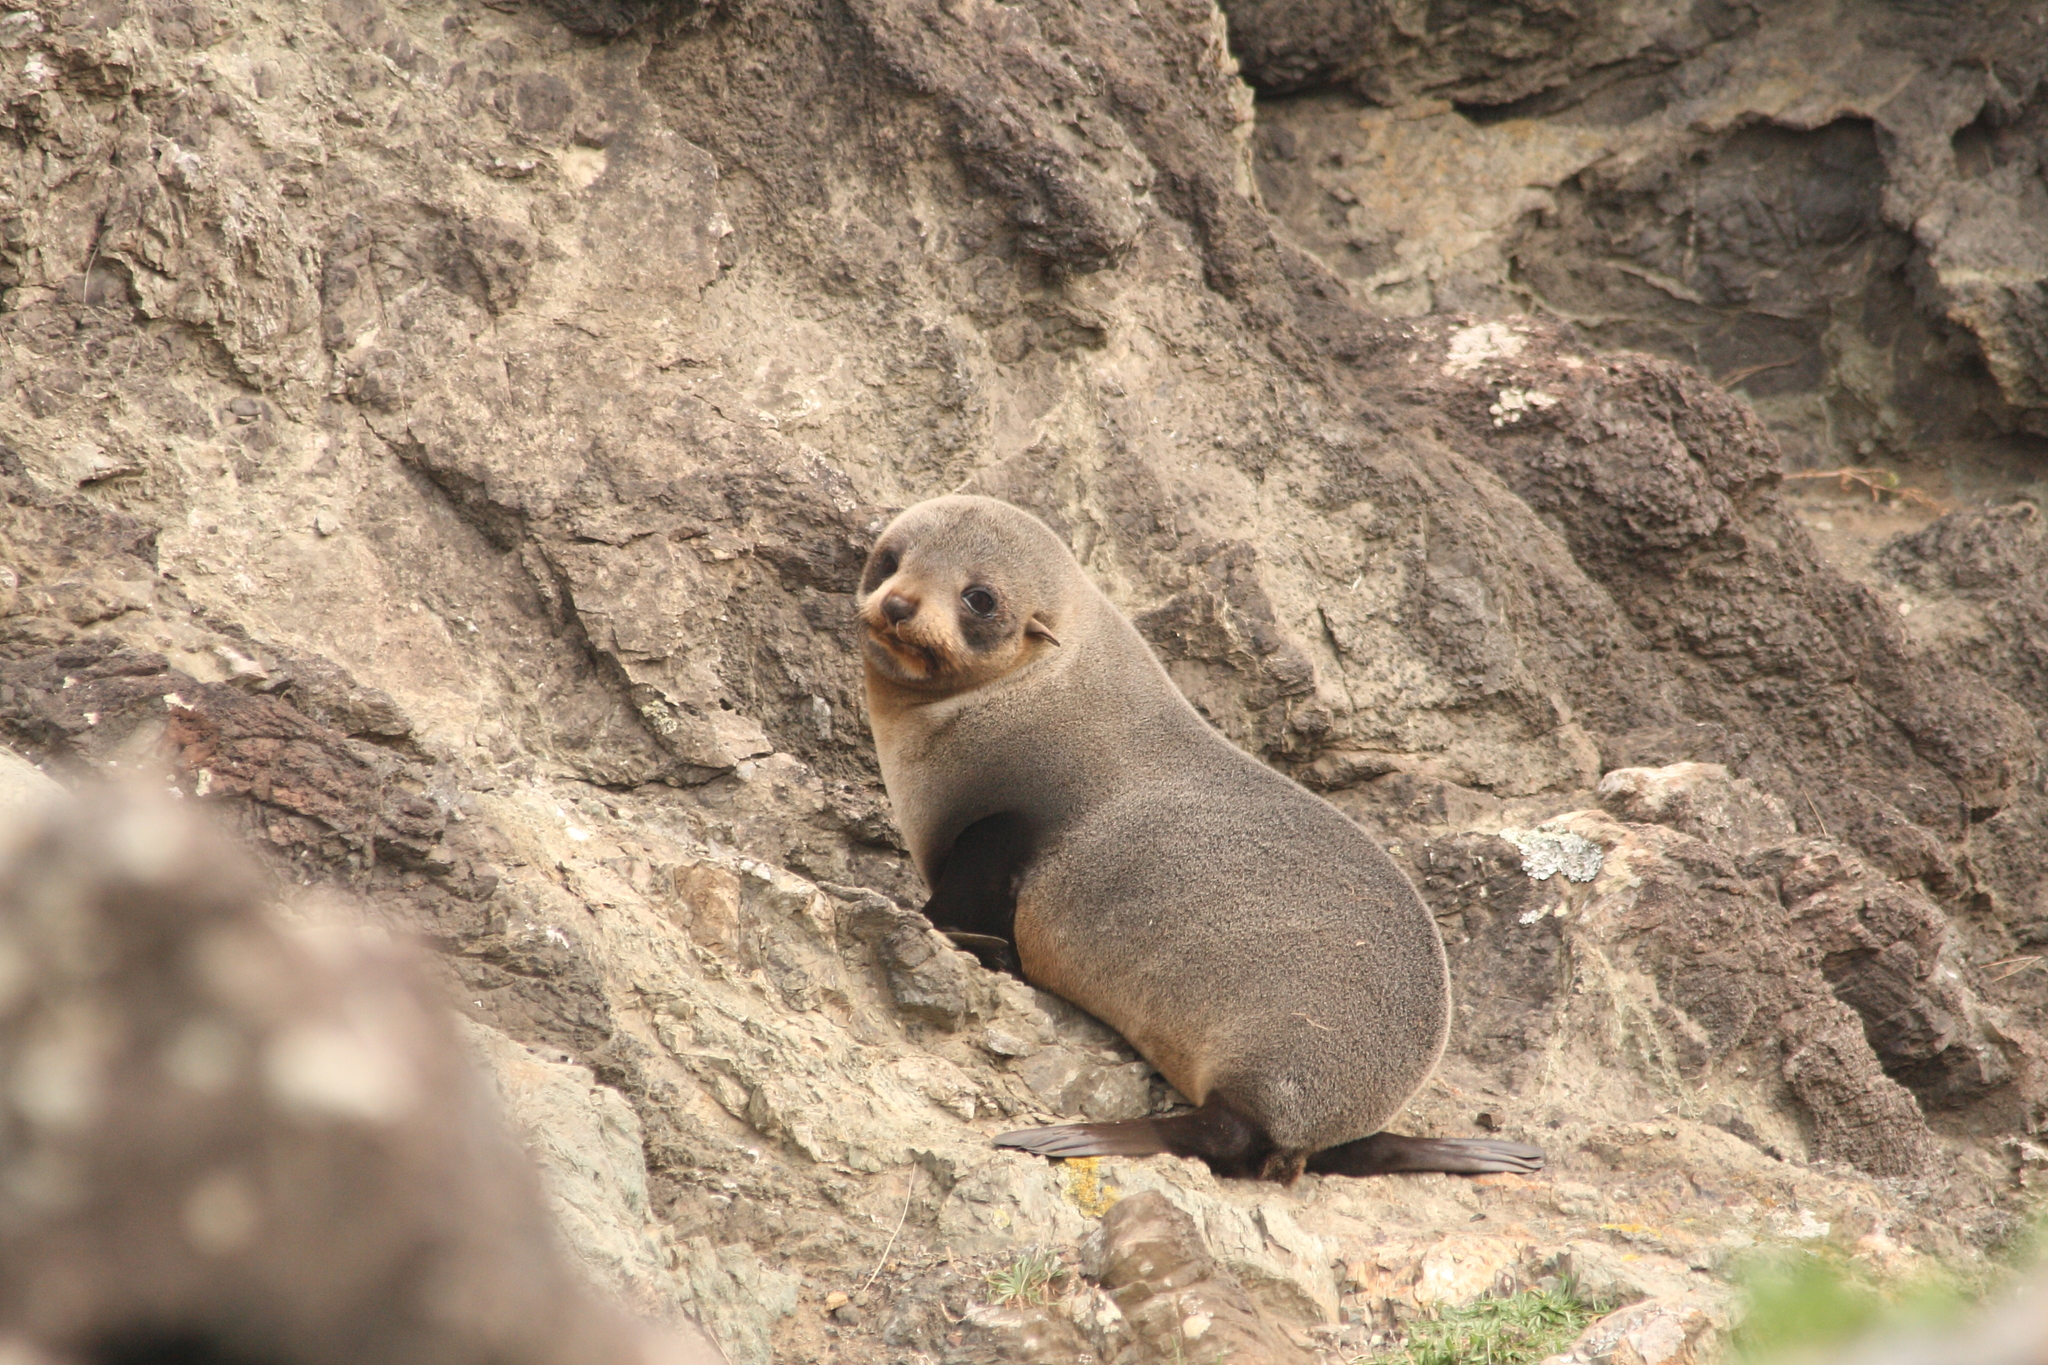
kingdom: Animalia
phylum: Chordata
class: Mammalia
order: Carnivora
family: Otariidae
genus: Arctocephalus
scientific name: Arctocephalus forsteri
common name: New zealand fur seal
